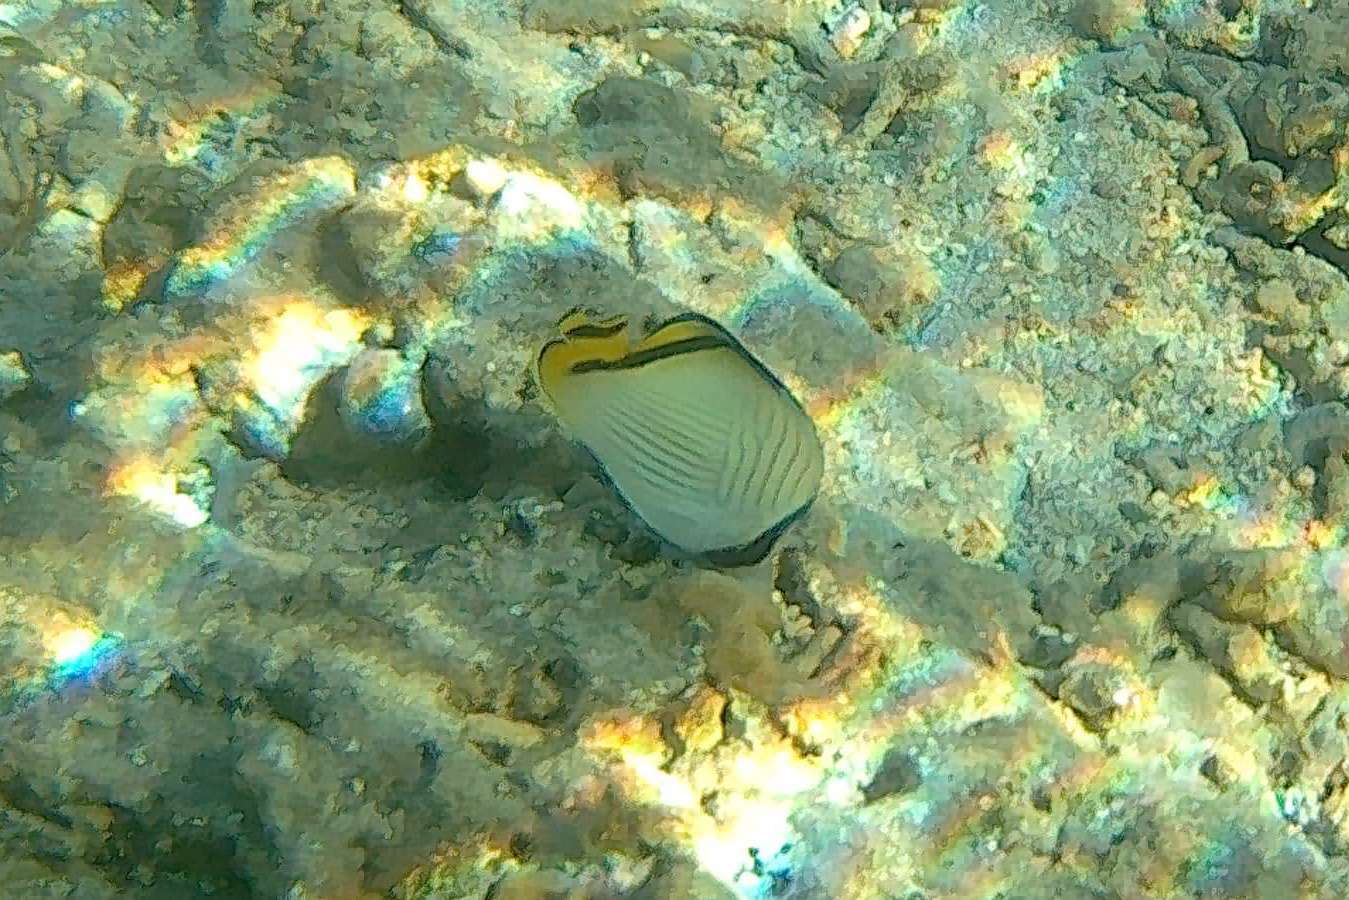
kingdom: Animalia
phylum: Chordata
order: Perciformes
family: Chaetodontidae
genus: Chaetodon
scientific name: Chaetodon vagabundus
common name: Vagabond butterflyfish
